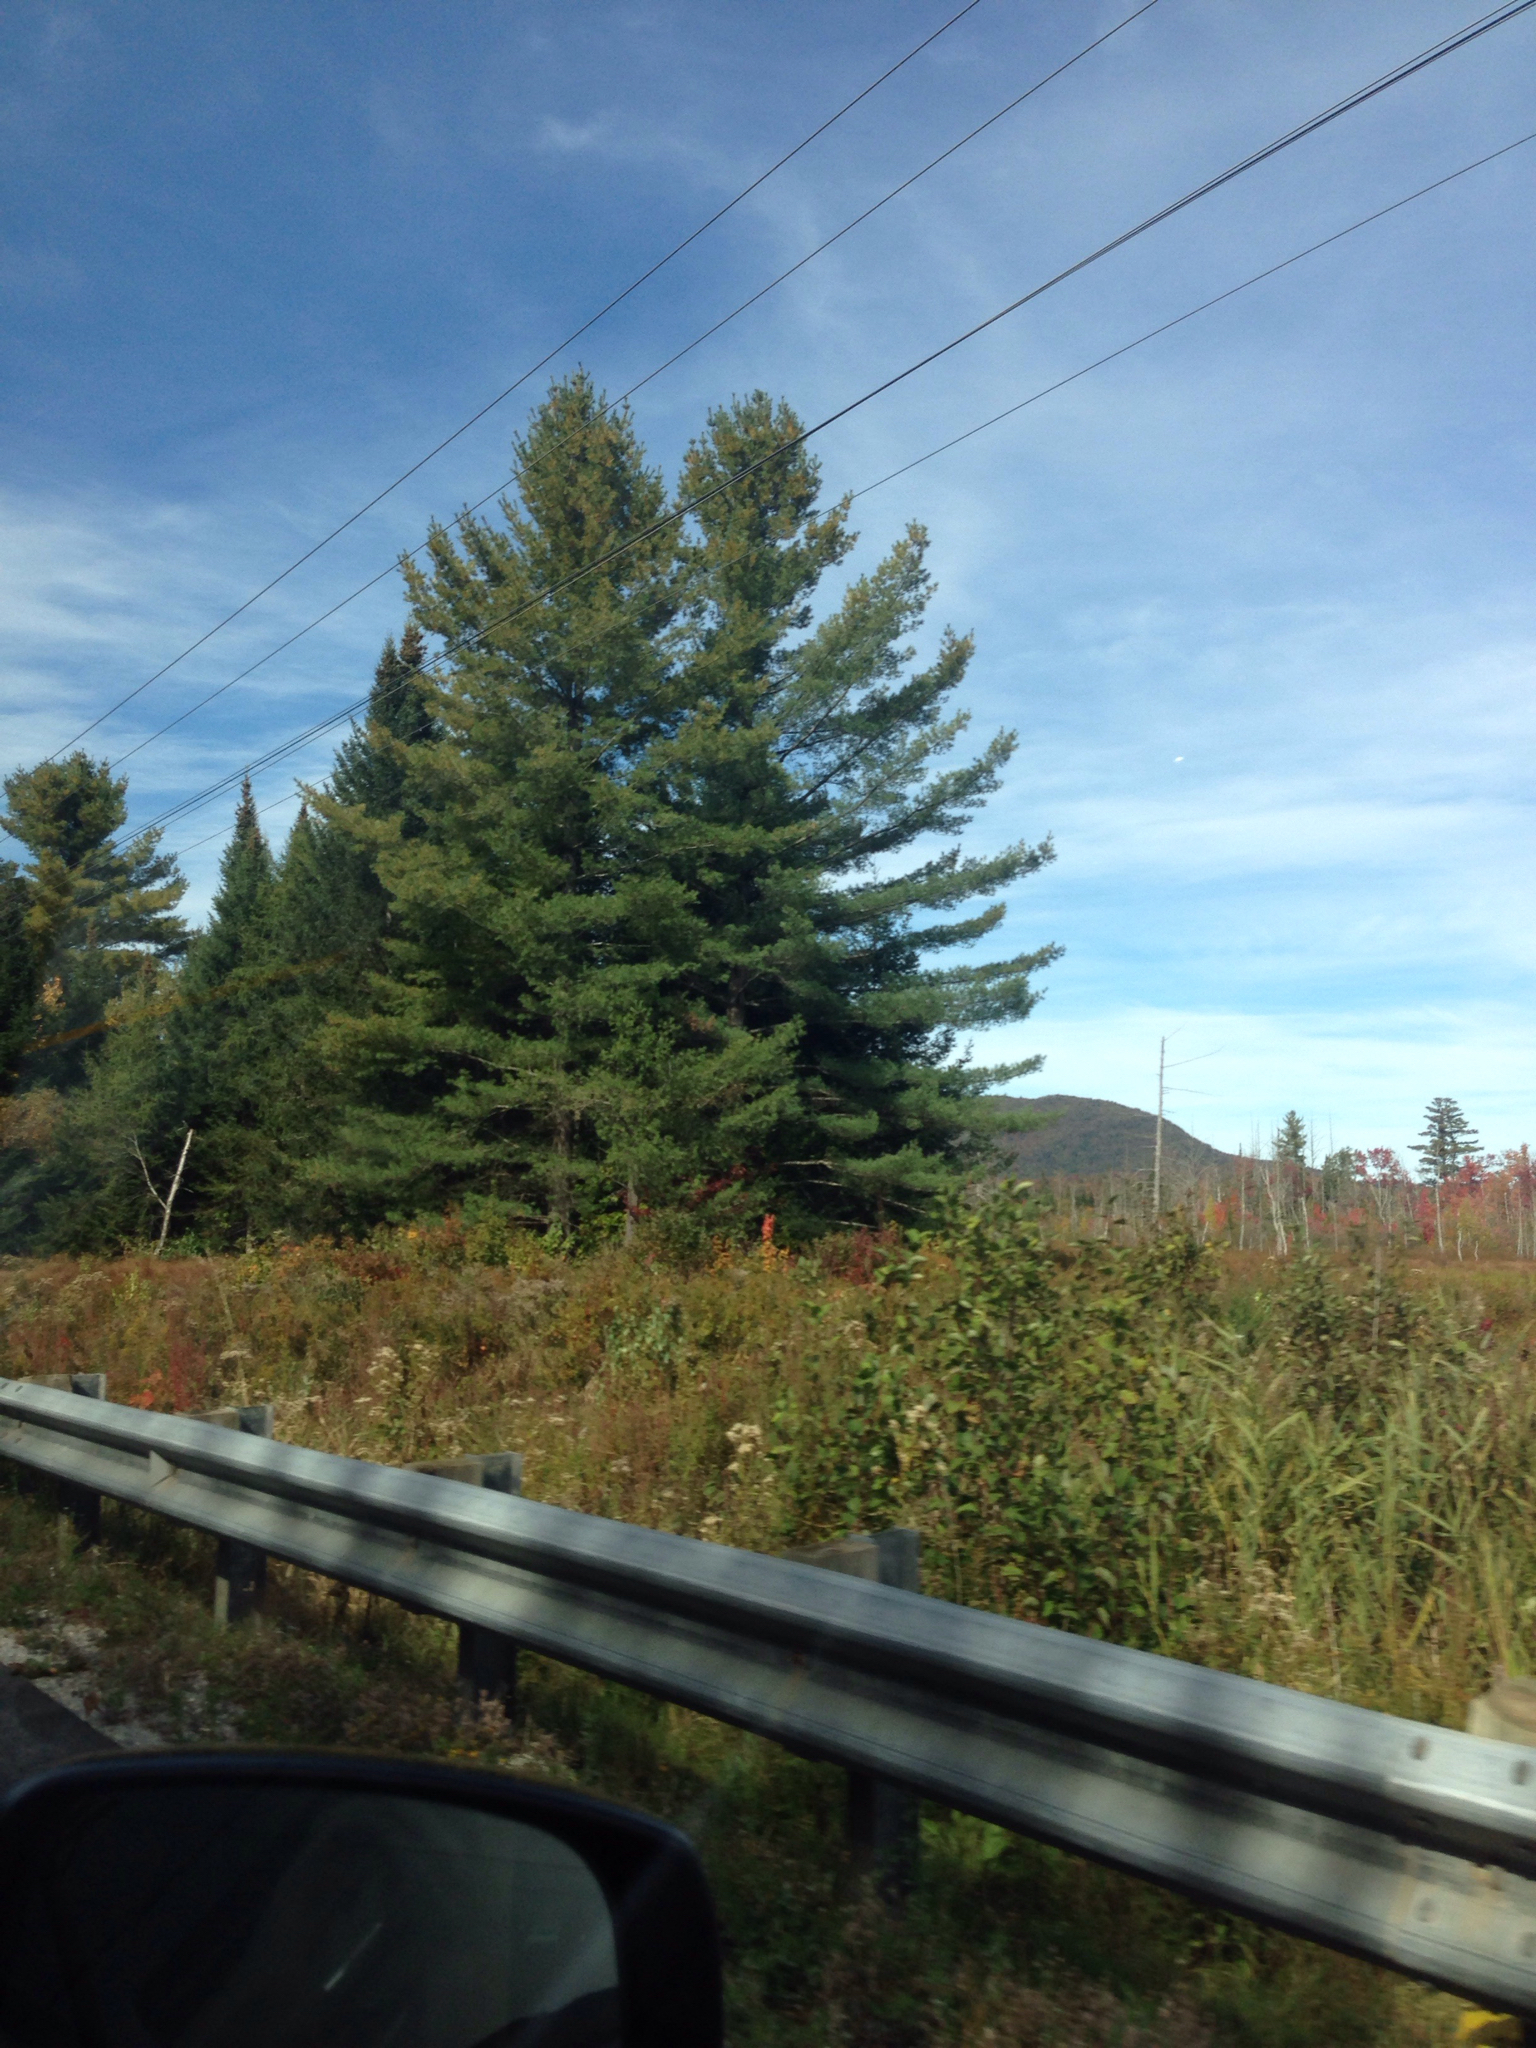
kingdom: Plantae
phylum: Tracheophyta
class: Liliopsida
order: Poales
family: Poaceae
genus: Phragmites
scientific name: Phragmites australis
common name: Common reed
